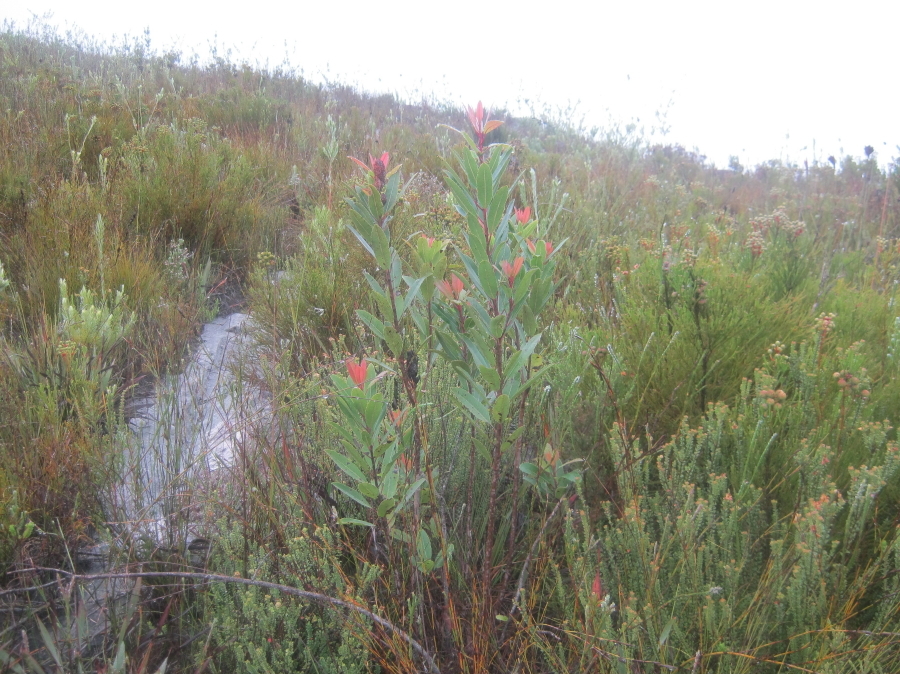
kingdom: Plantae
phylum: Tracheophyta
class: Magnoliopsida
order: Sapindales
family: Anacardiaceae
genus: Laurophyllus
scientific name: Laurophyllus capensis
